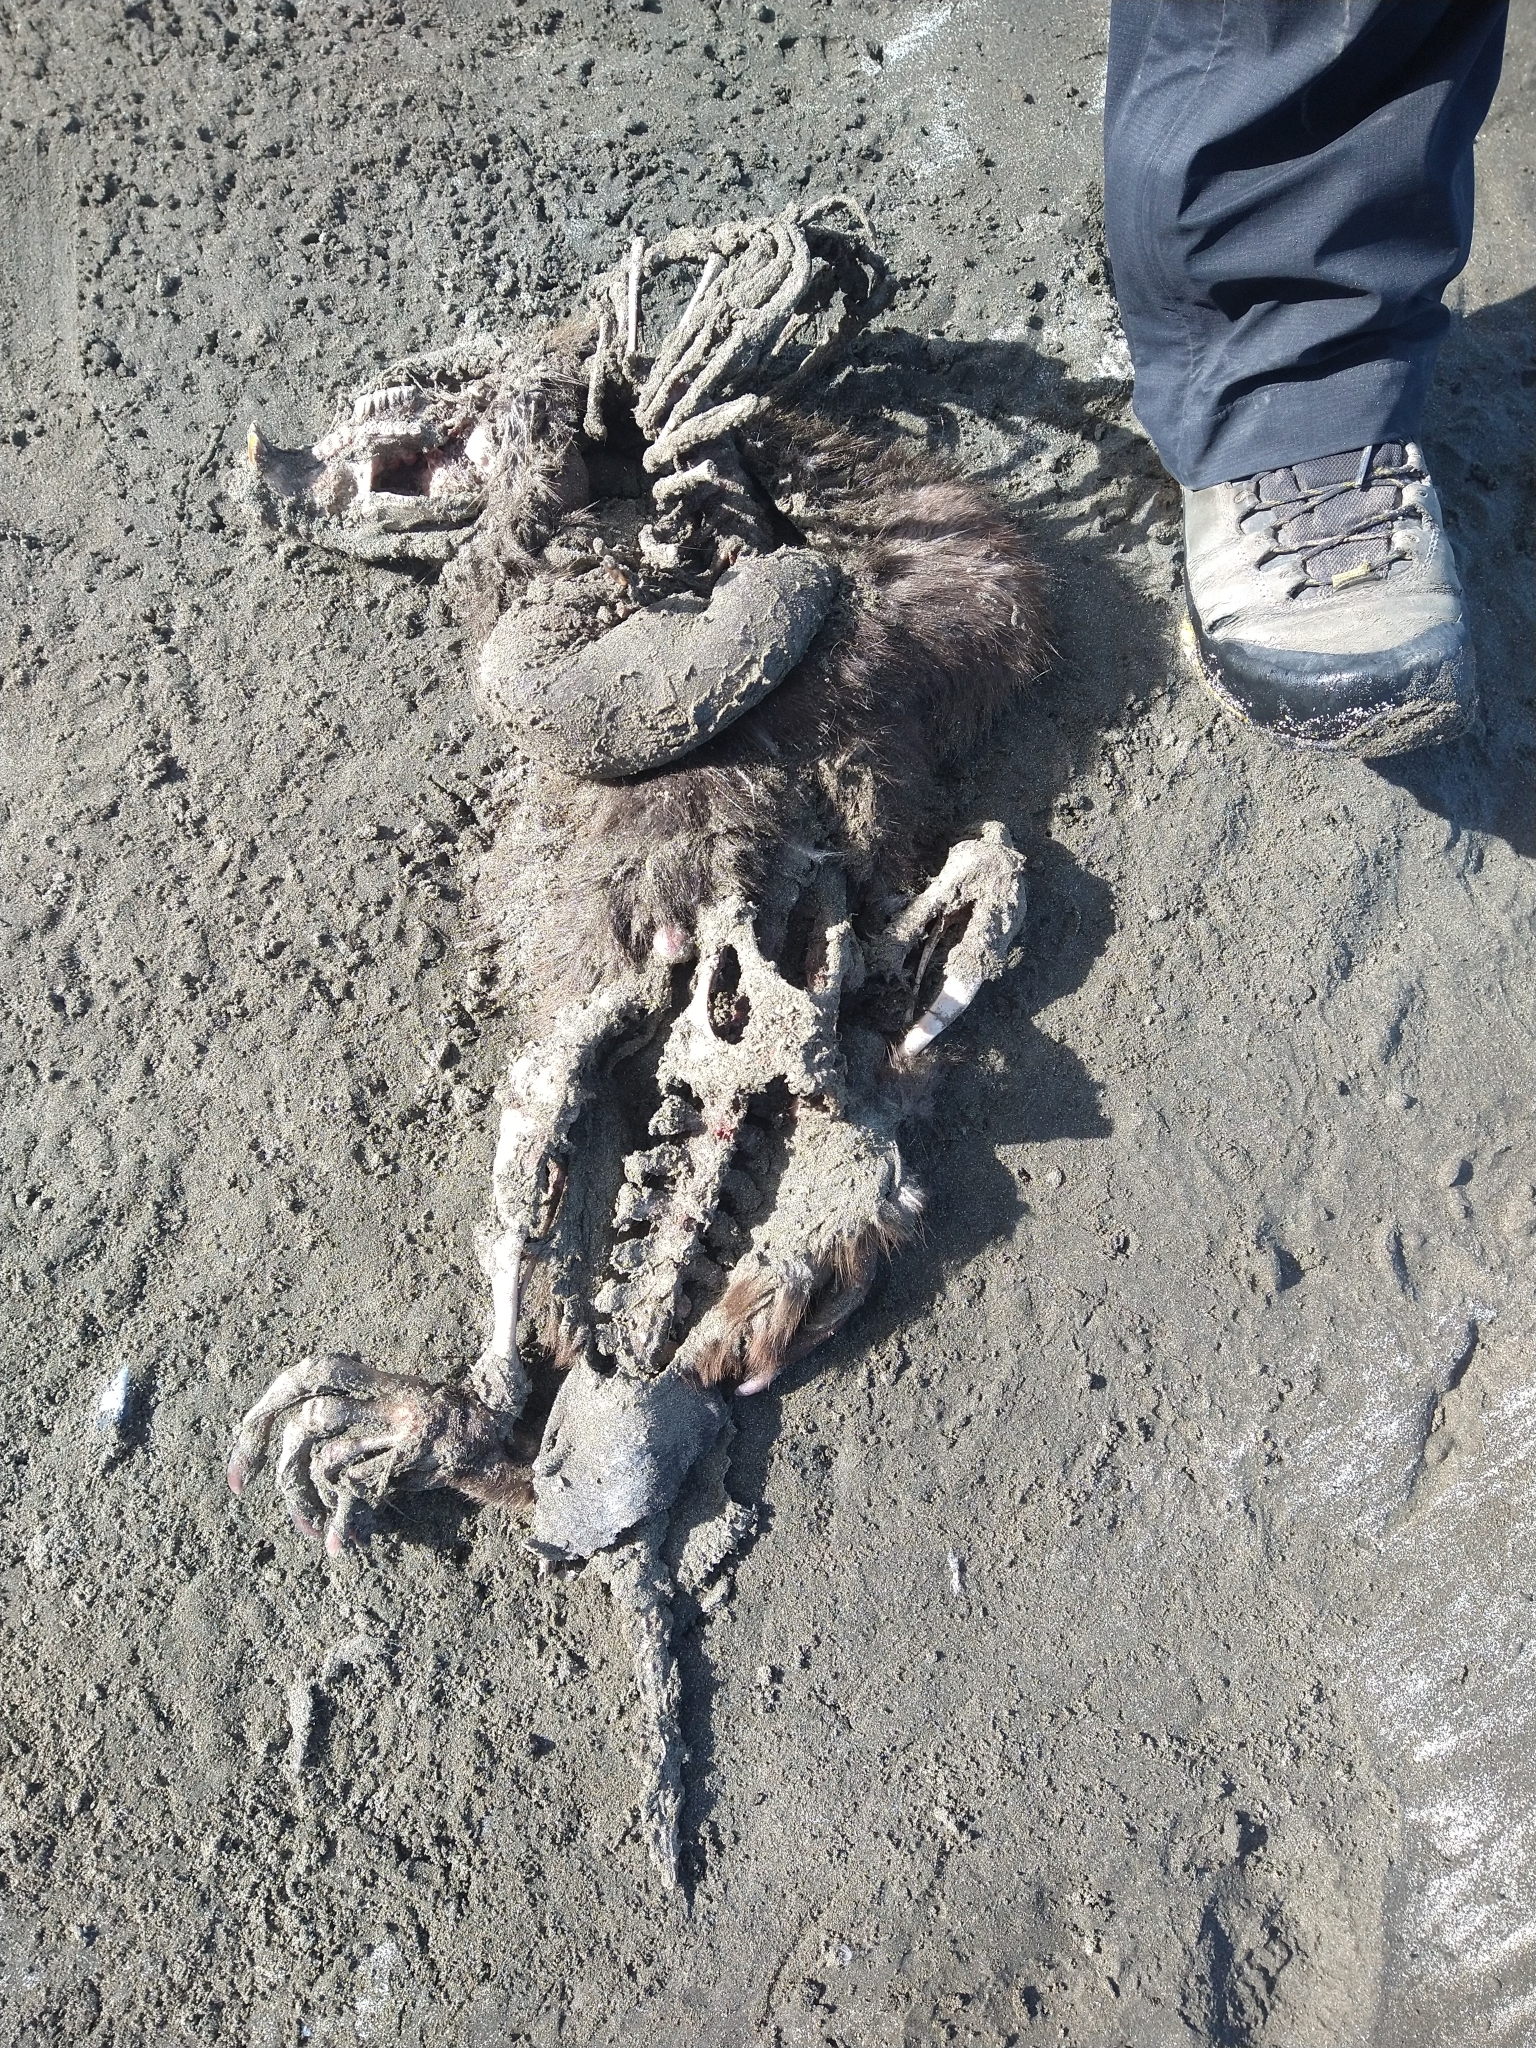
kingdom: Animalia
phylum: Chordata
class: Mammalia
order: Rodentia
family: Castoridae
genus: Castor
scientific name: Castor canadensis
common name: American beaver
